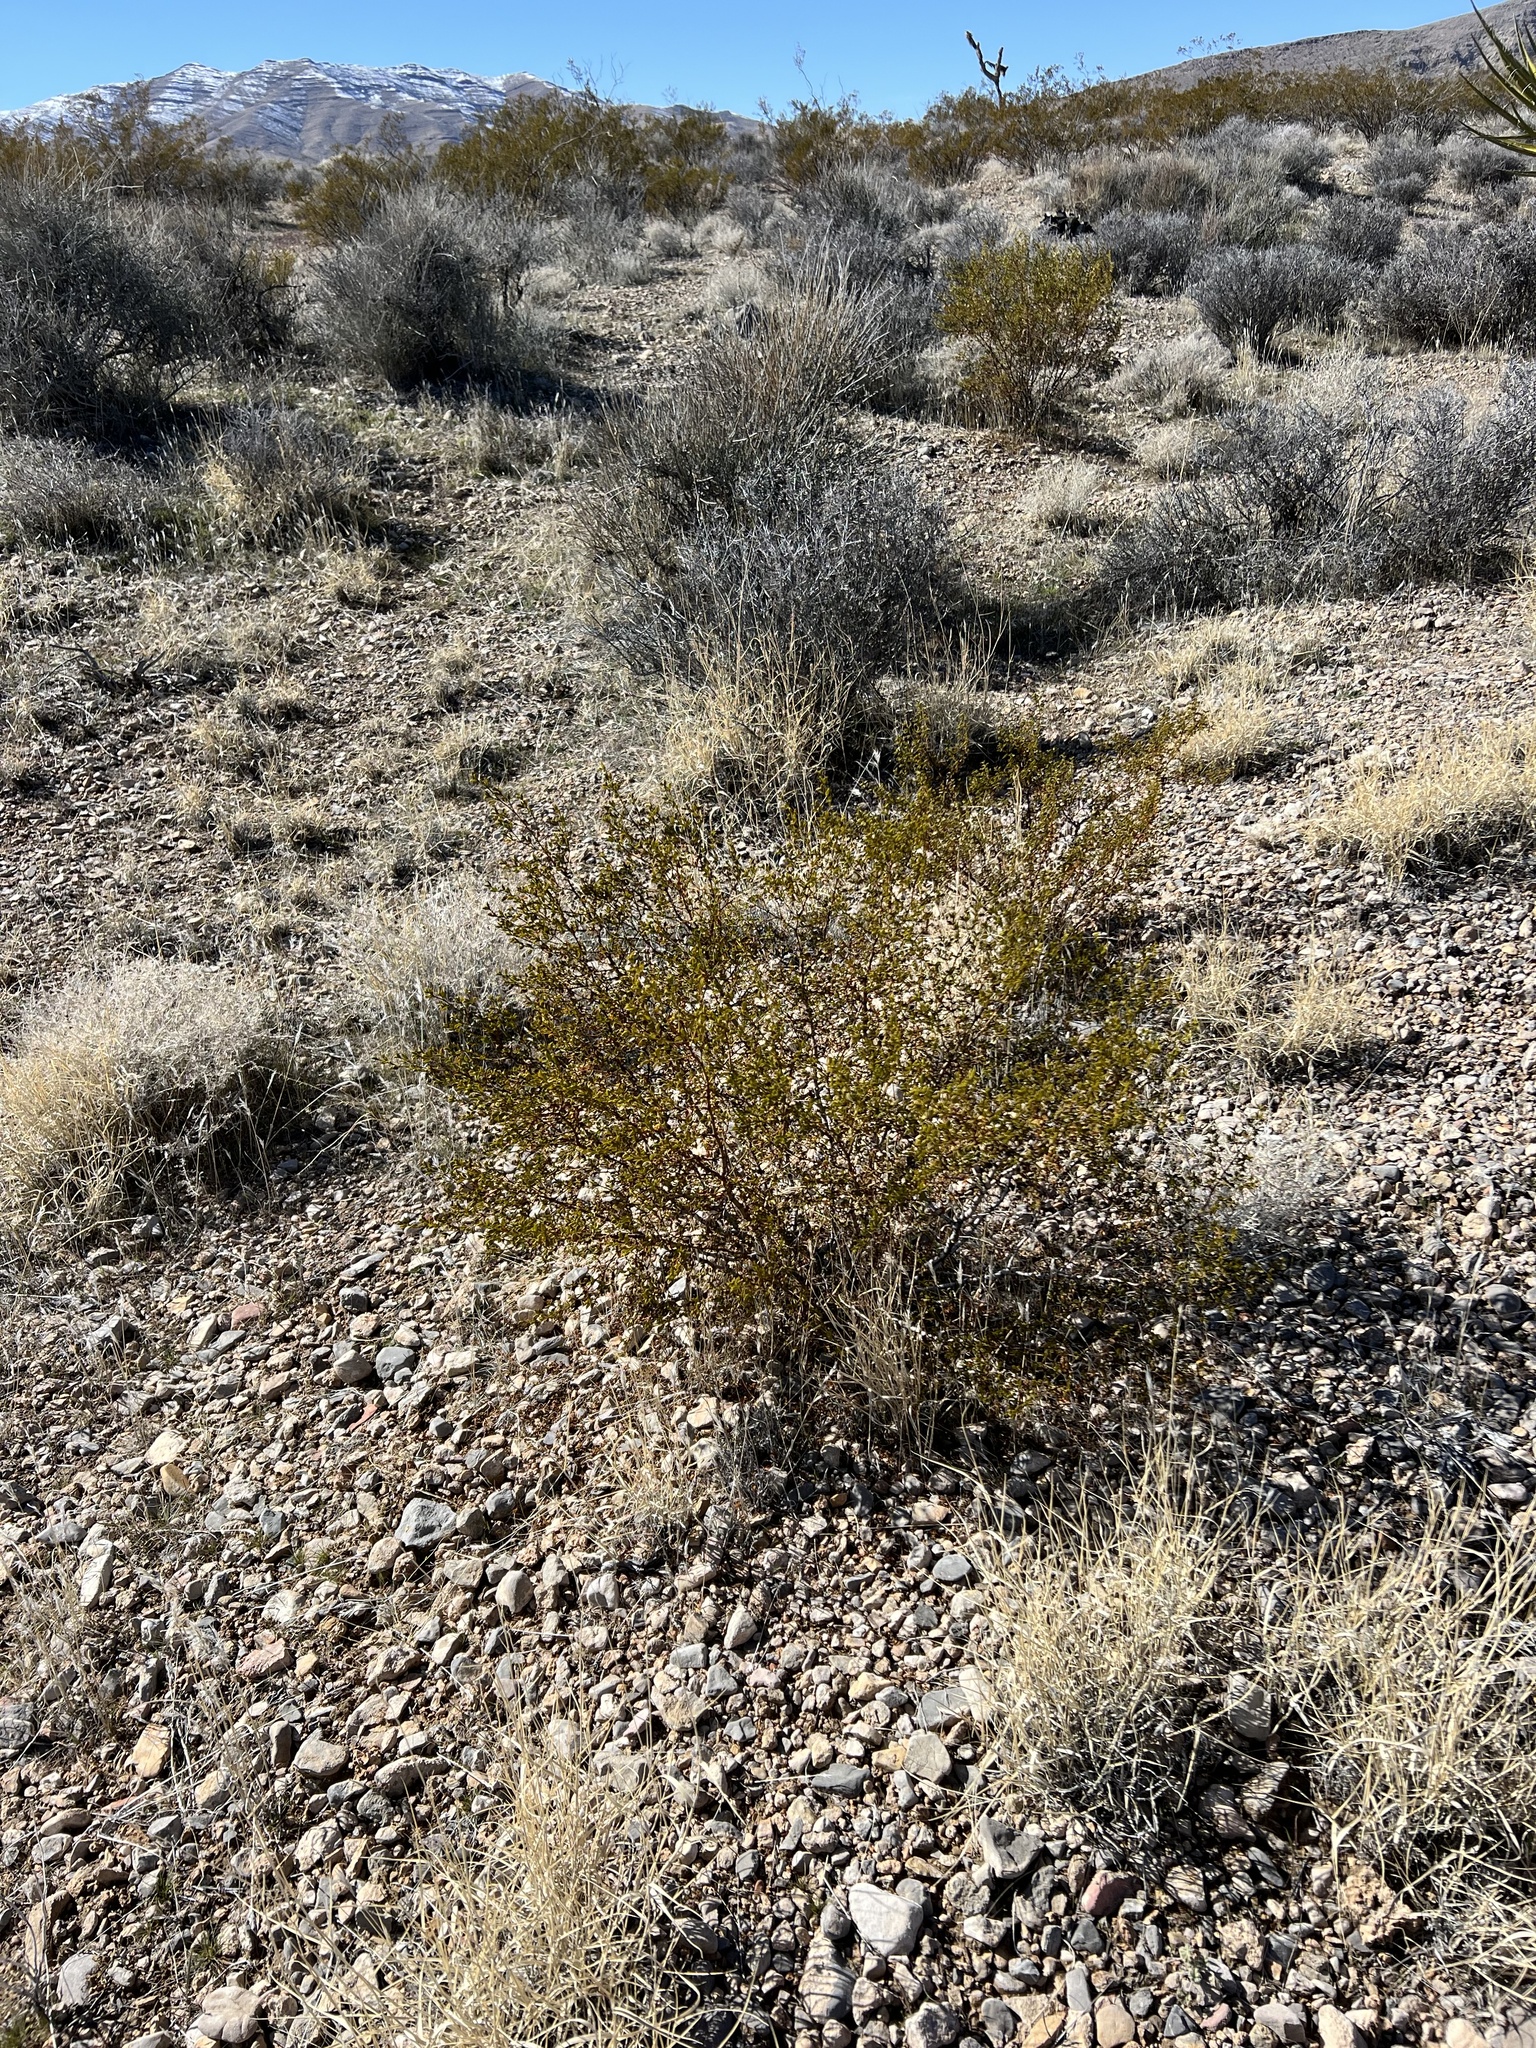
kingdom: Plantae
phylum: Tracheophyta
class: Magnoliopsida
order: Zygophyllales
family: Zygophyllaceae
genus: Larrea
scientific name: Larrea tridentata
